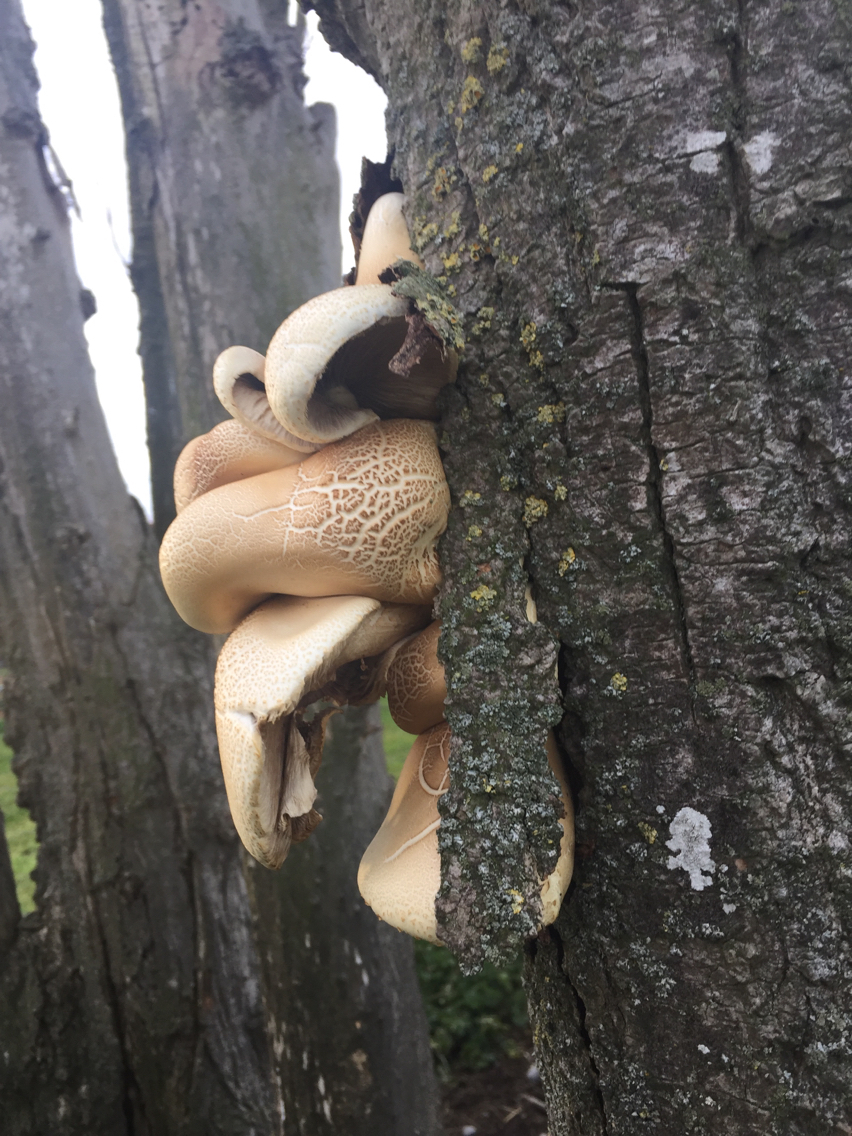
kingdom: Fungi
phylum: Basidiomycota
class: Agaricomycetes
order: Agaricales
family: Tubariaceae
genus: Cyclocybe
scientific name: Cyclocybe parasitica
